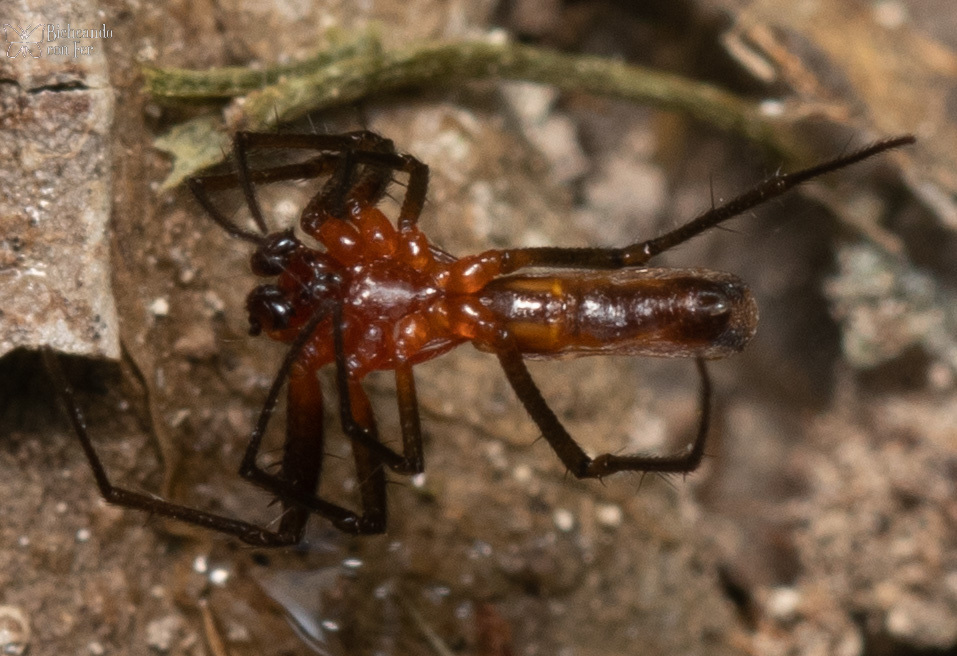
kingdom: Animalia
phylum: Arthropoda
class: Arachnida
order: Araneae
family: Araneidae
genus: Micrathena
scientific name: Micrathena funebris
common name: Orb weavers
